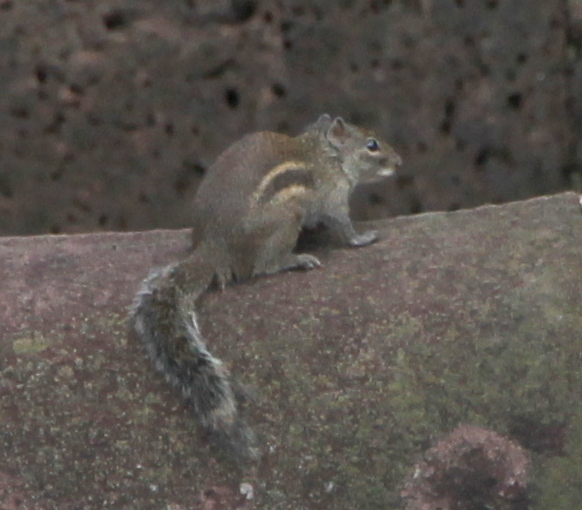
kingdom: Animalia
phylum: Chordata
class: Mammalia
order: Rodentia
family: Sciuridae
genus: Menetes
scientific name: Menetes berdmorei
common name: Indochinese ground squirrel
